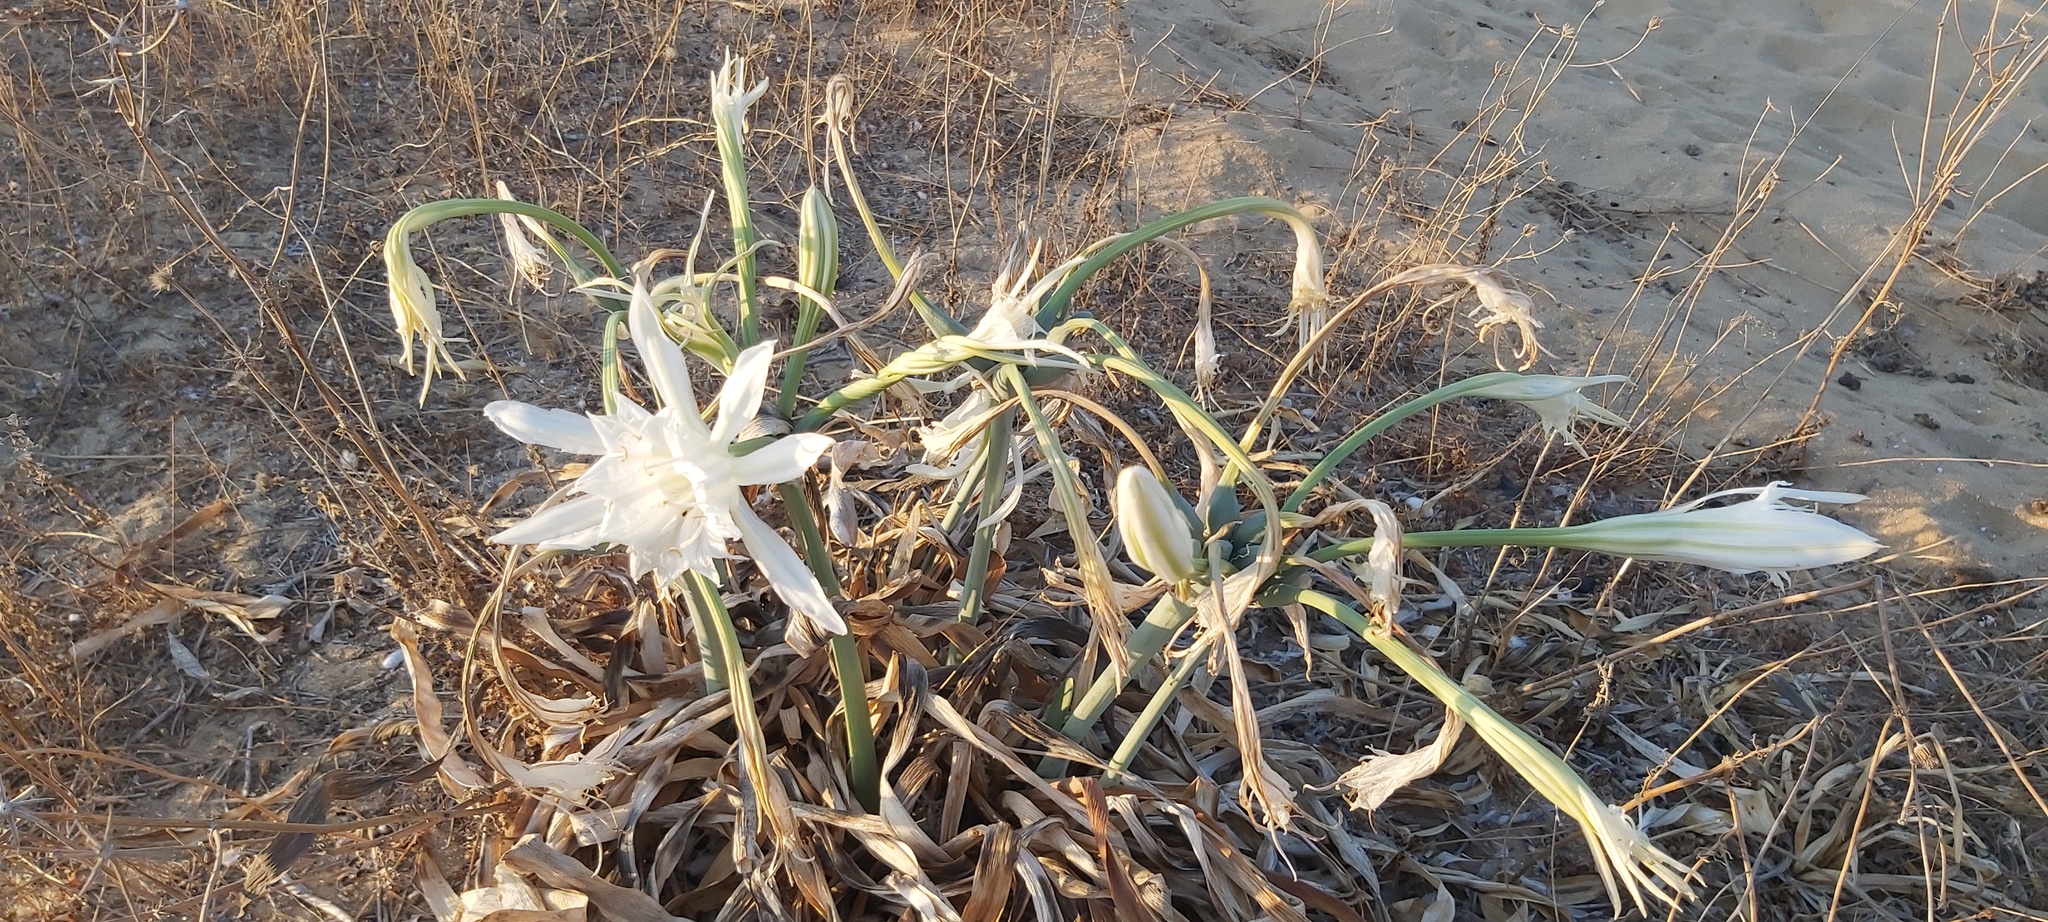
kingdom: Plantae
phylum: Tracheophyta
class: Liliopsida
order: Asparagales
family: Amaryllidaceae
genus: Pancratium
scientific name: Pancratium maritimum
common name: Sea-daffodil
